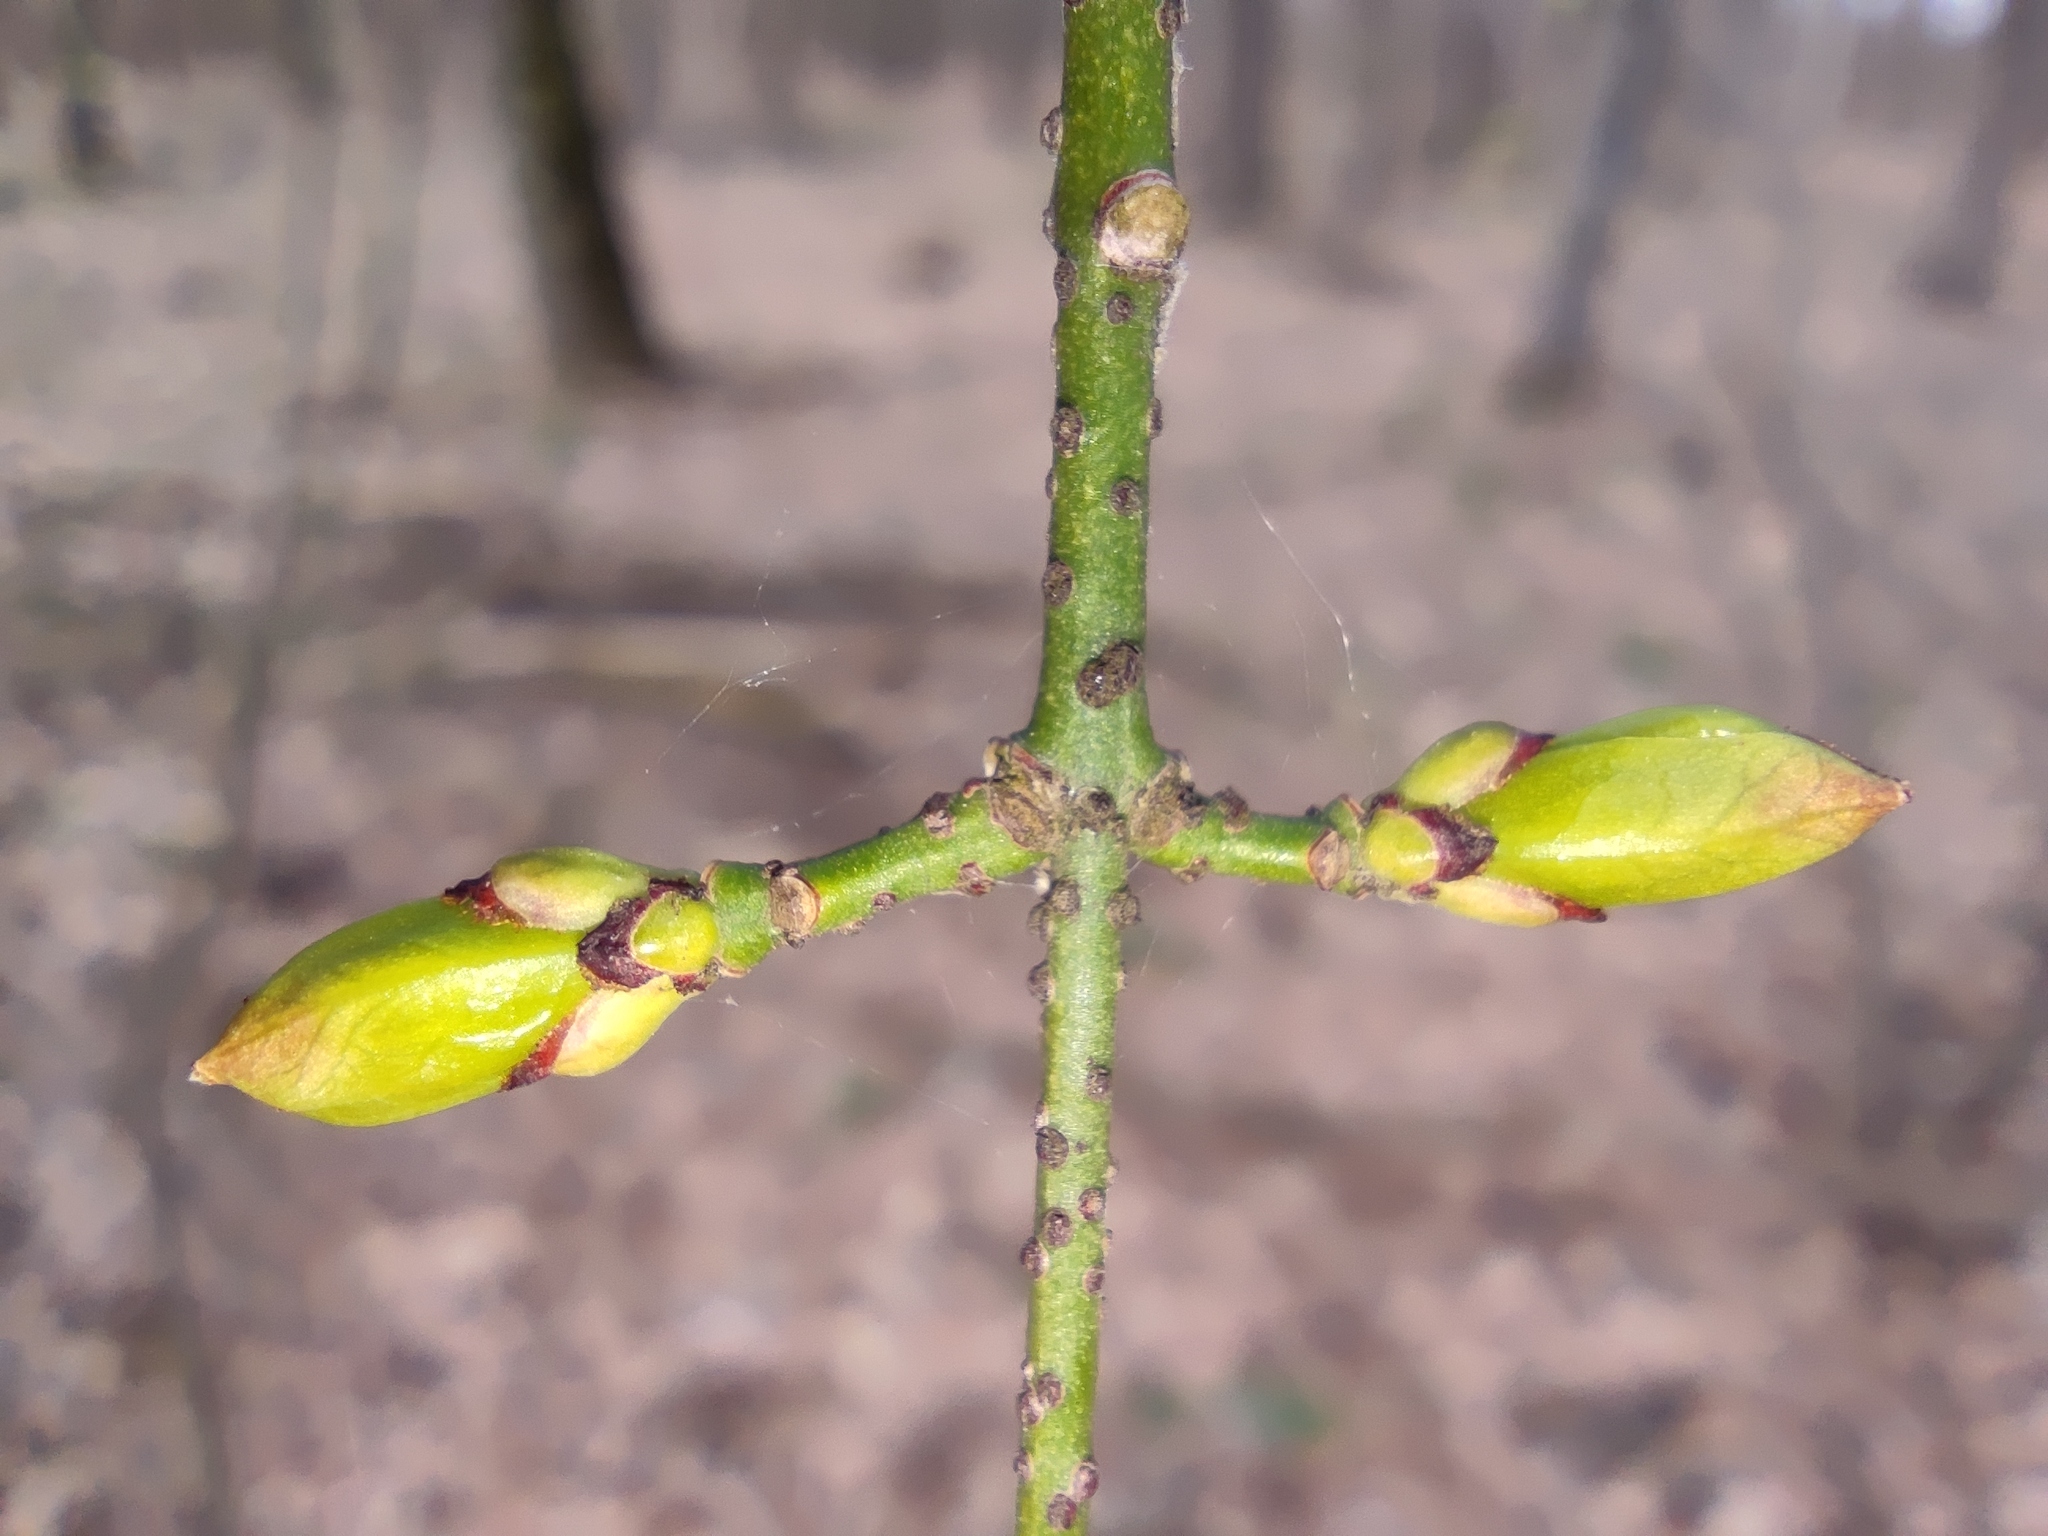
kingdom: Plantae
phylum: Tracheophyta
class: Magnoliopsida
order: Celastrales
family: Celastraceae
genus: Euonymus
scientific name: Euonymus verrucosus
